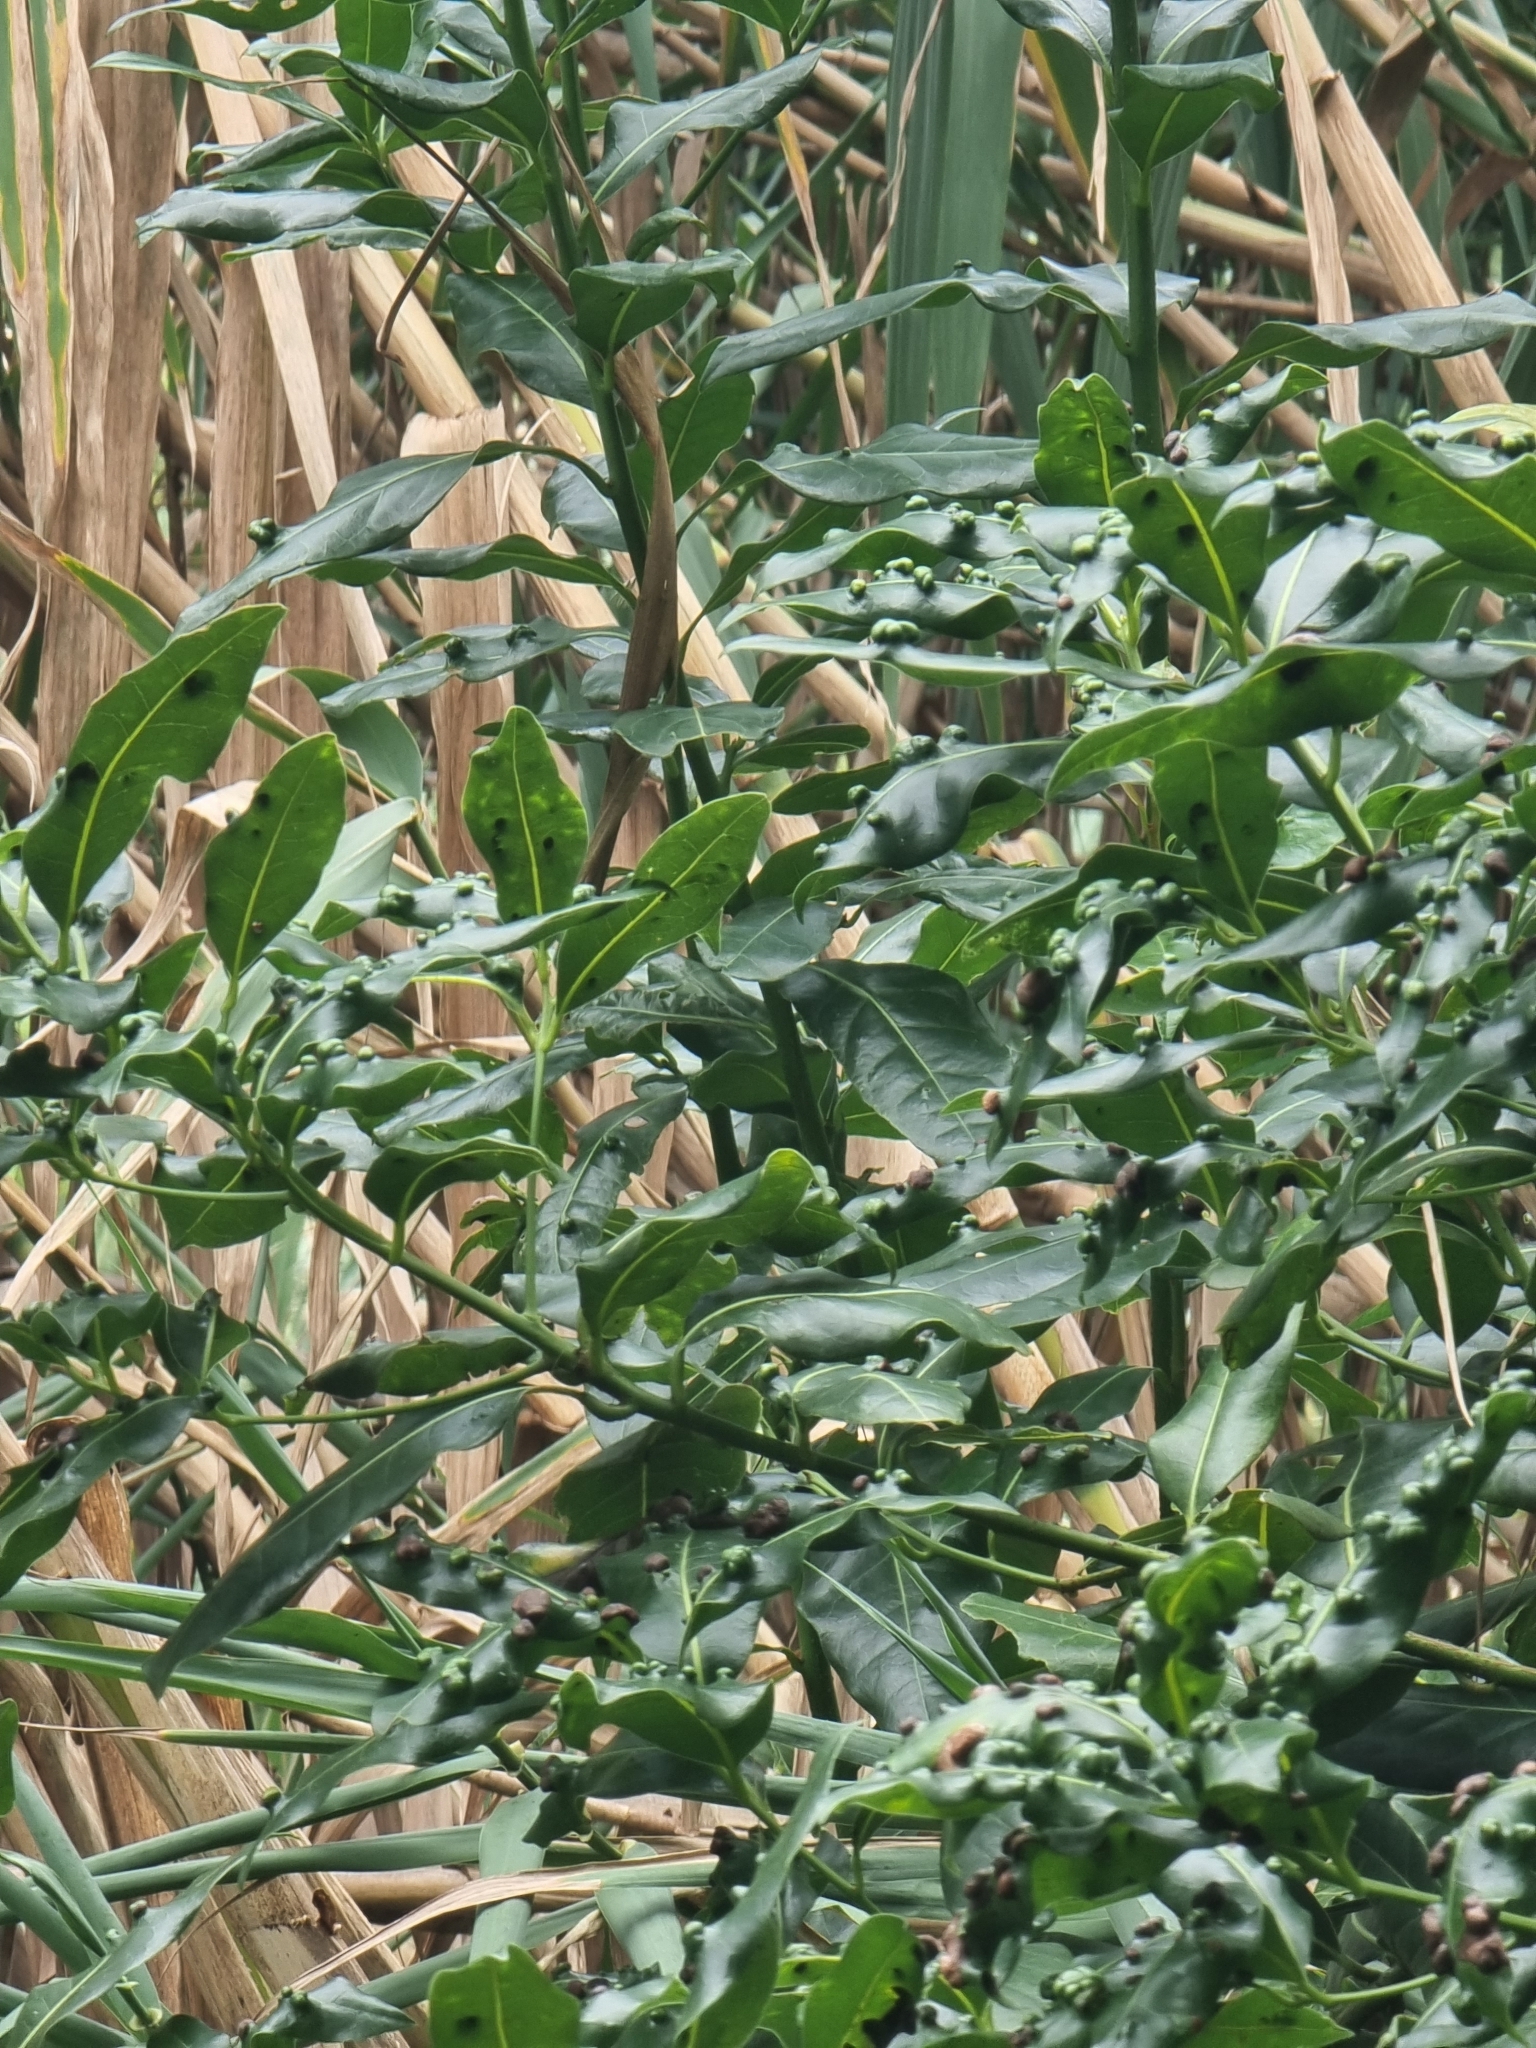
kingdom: Plantae
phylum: Tracheophyta
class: Magnoliopsida
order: Laurales
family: Lauraceae
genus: Apollonias
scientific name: Apollonias barbujana
